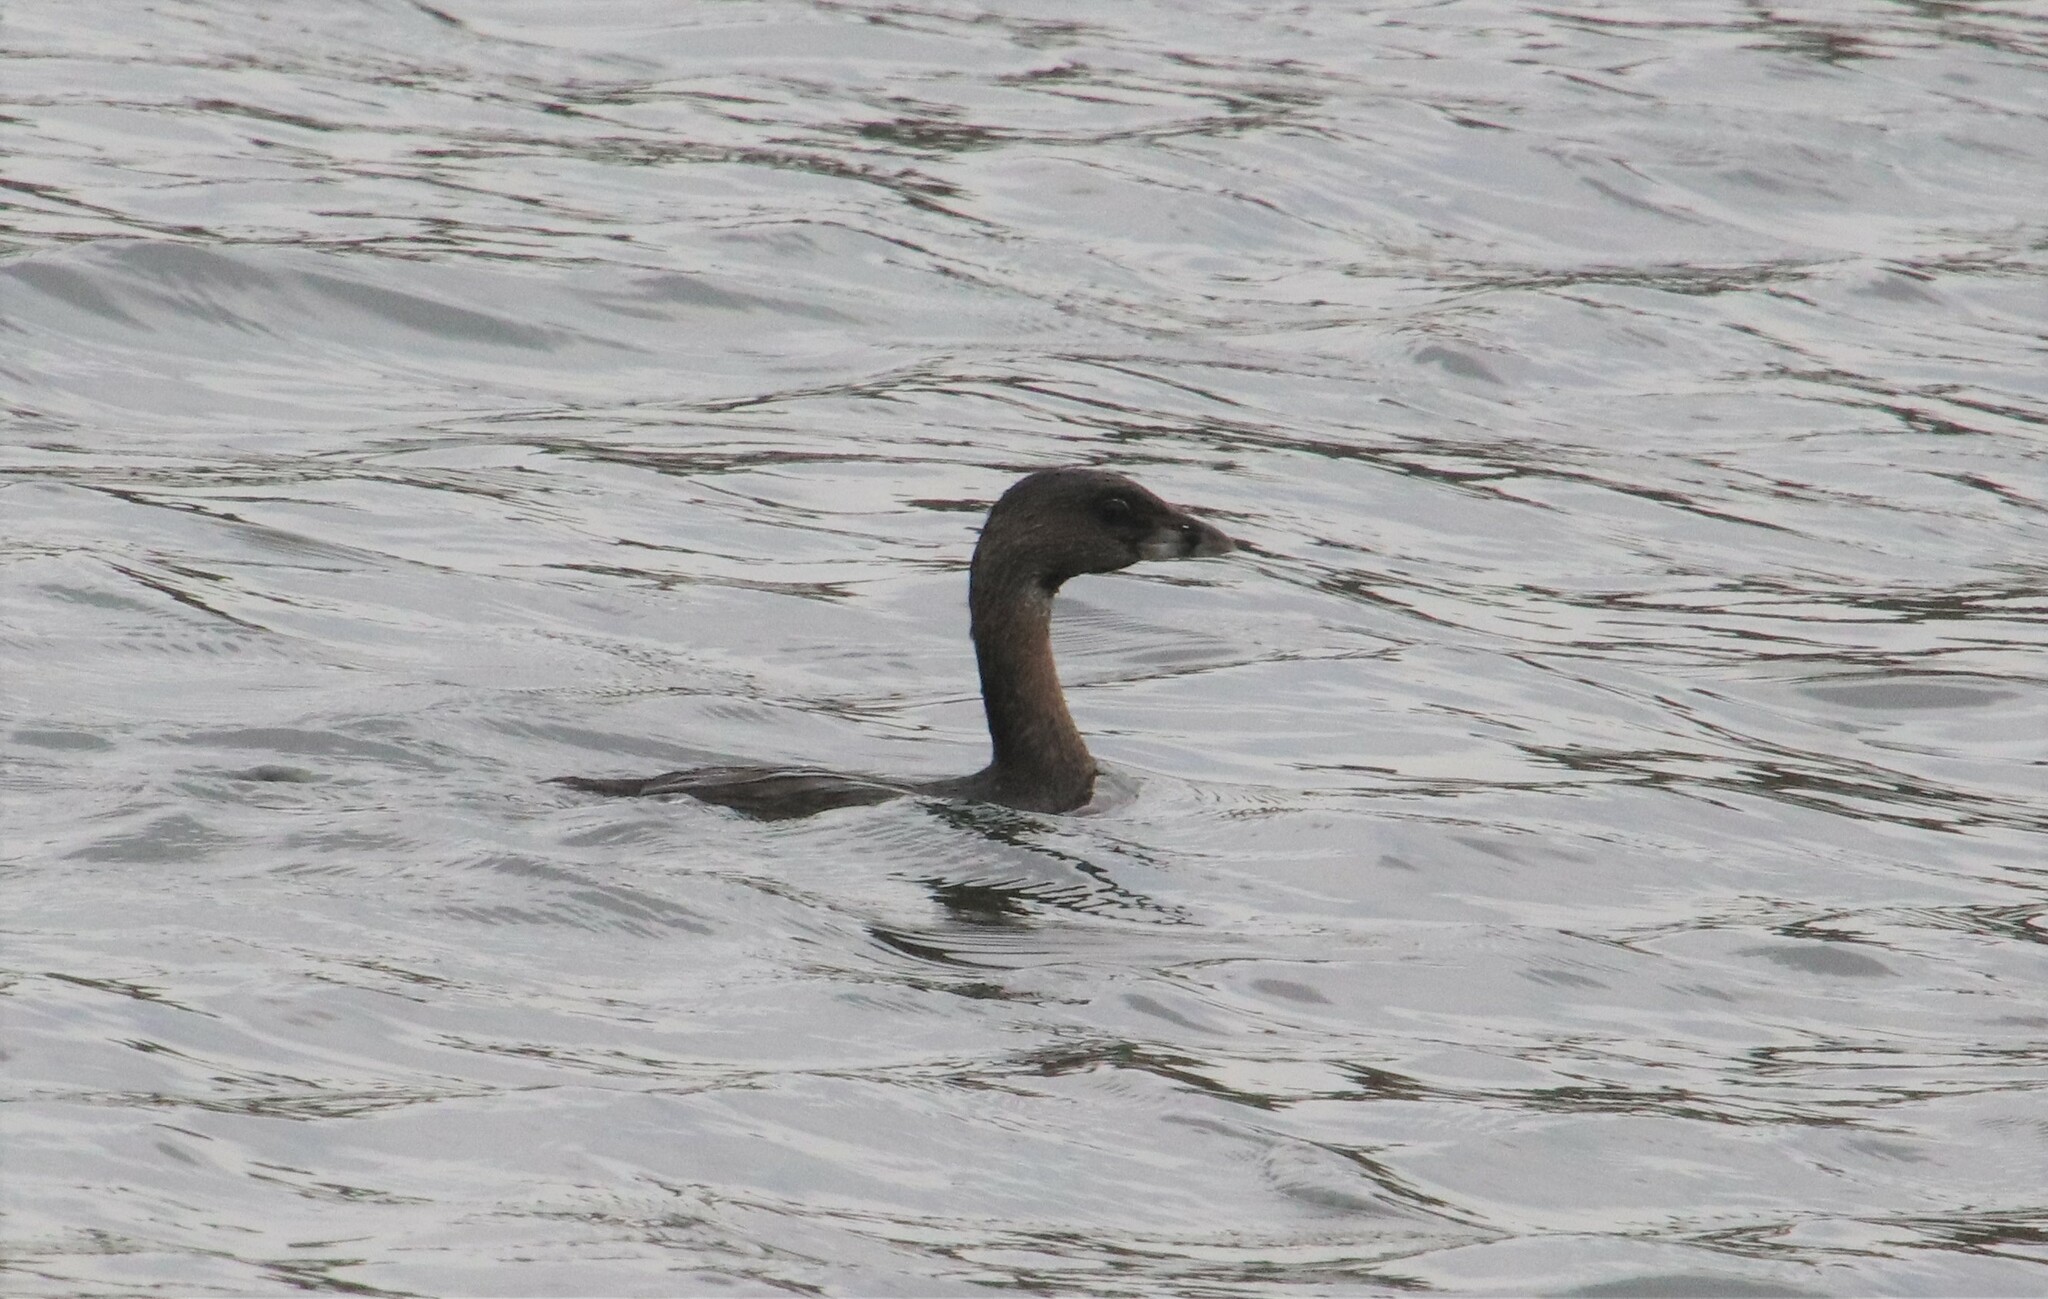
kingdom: Animalia
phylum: Chordata
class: Aves
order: Podicipediformes
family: Podicipedidae
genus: Podilymbus
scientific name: Podilymbus podiceps
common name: Pied-billed grebe
